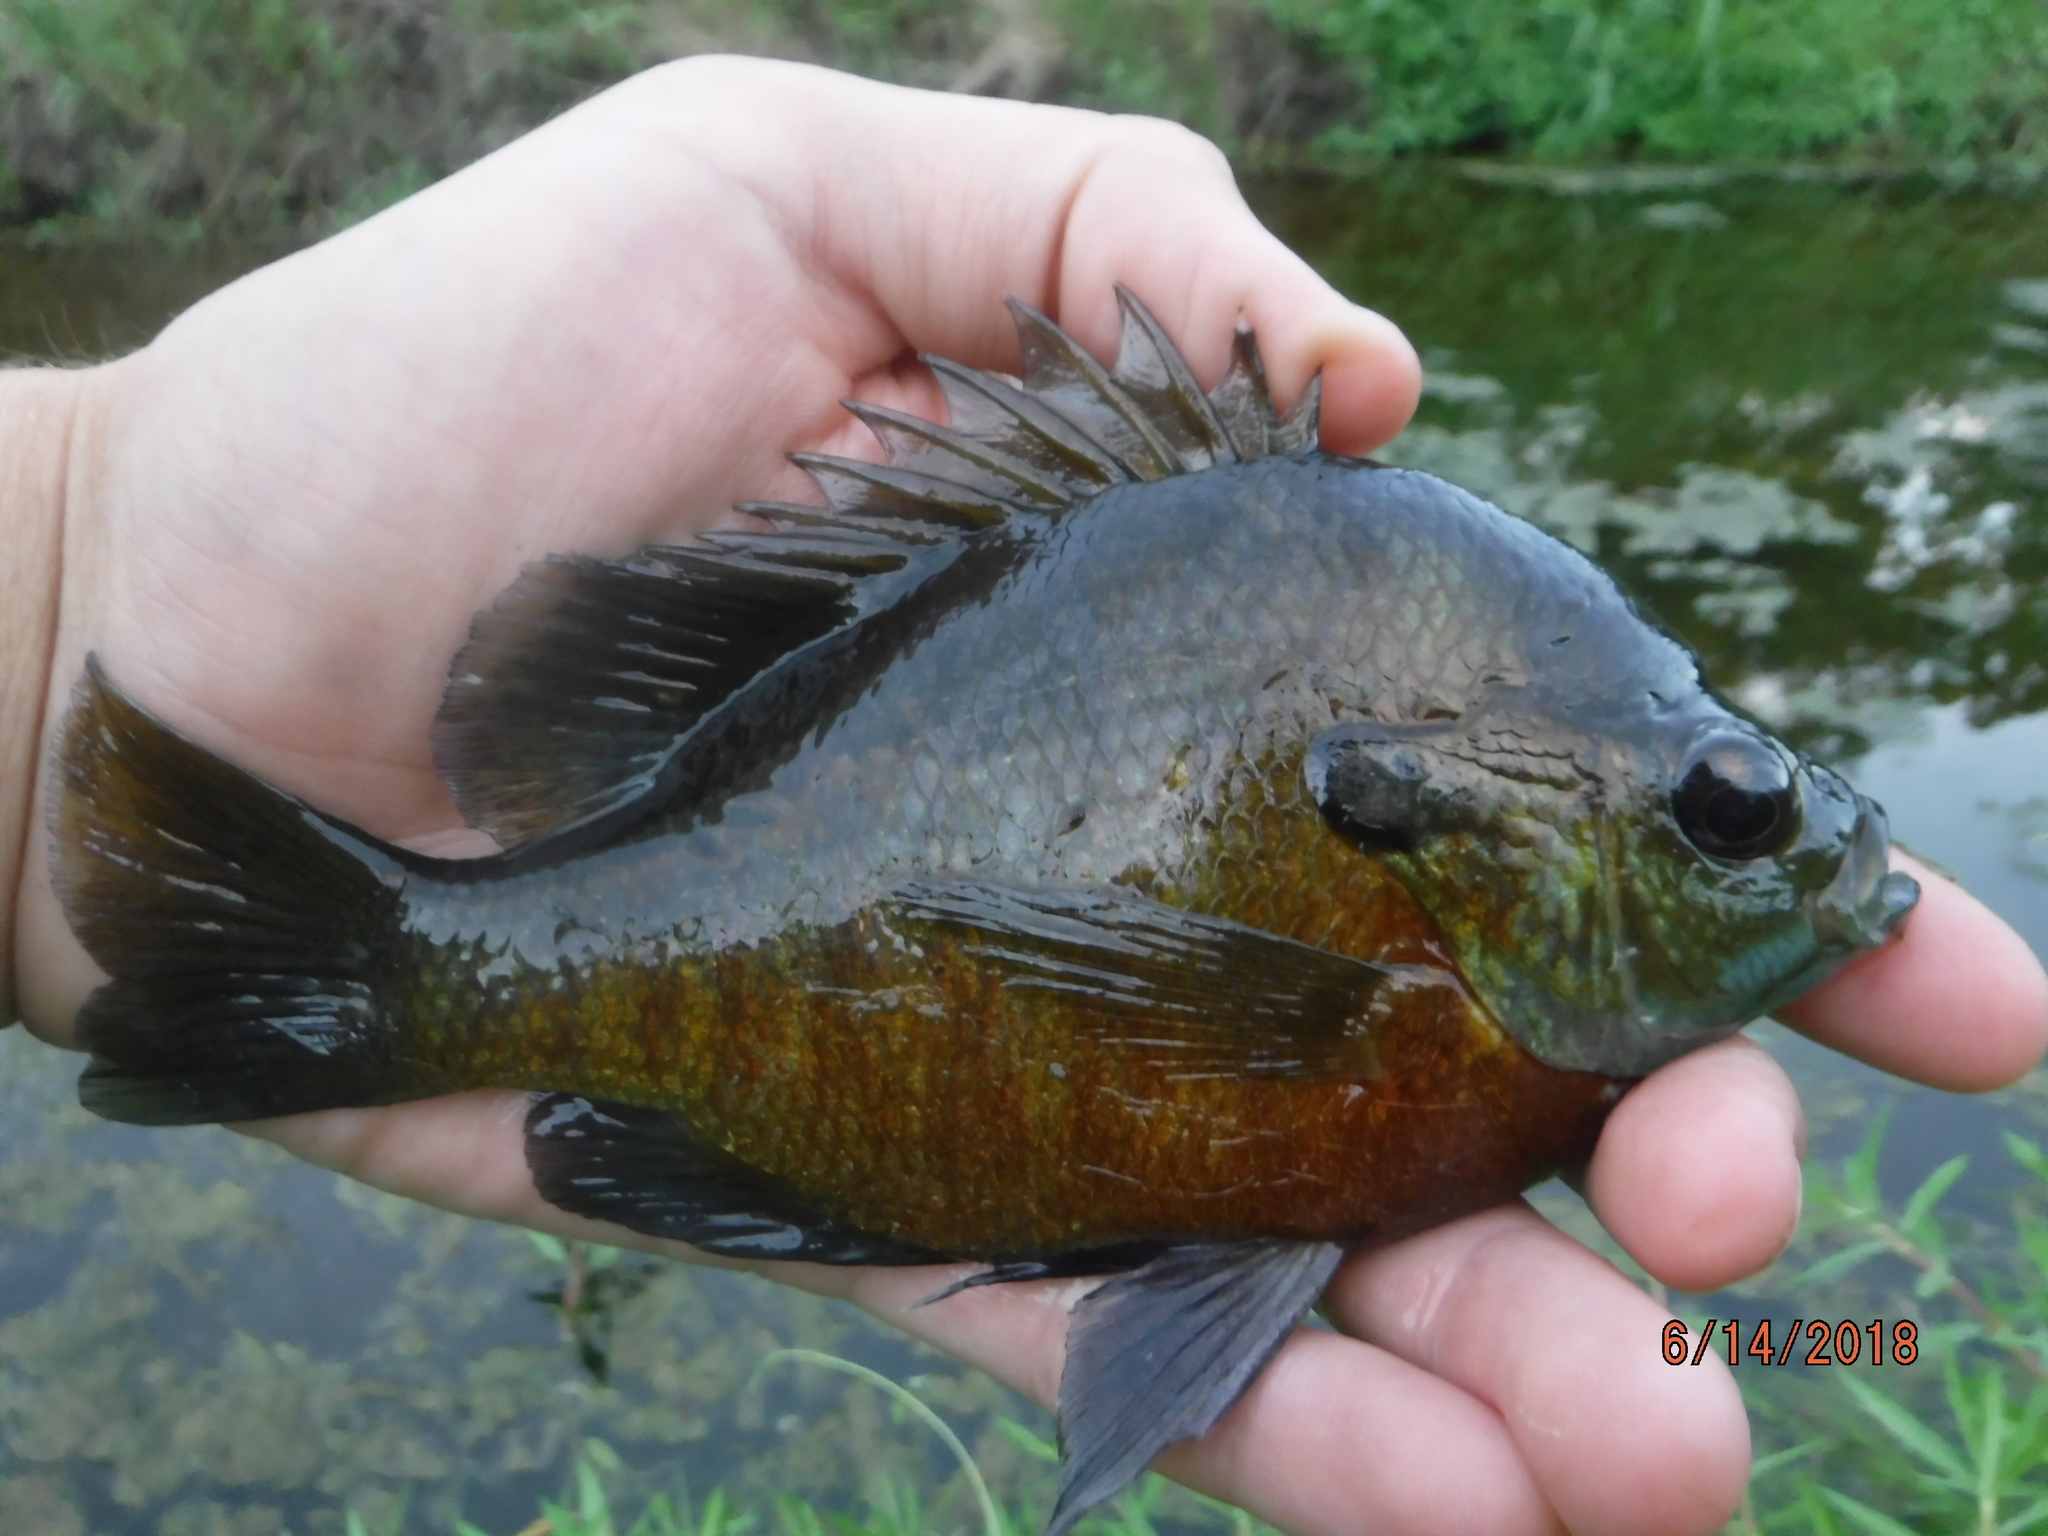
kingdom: Animalia
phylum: Chordata
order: Perciformes
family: Centrarchidae
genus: Lepomis
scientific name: Lepomis macrochirus
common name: Bluegill
